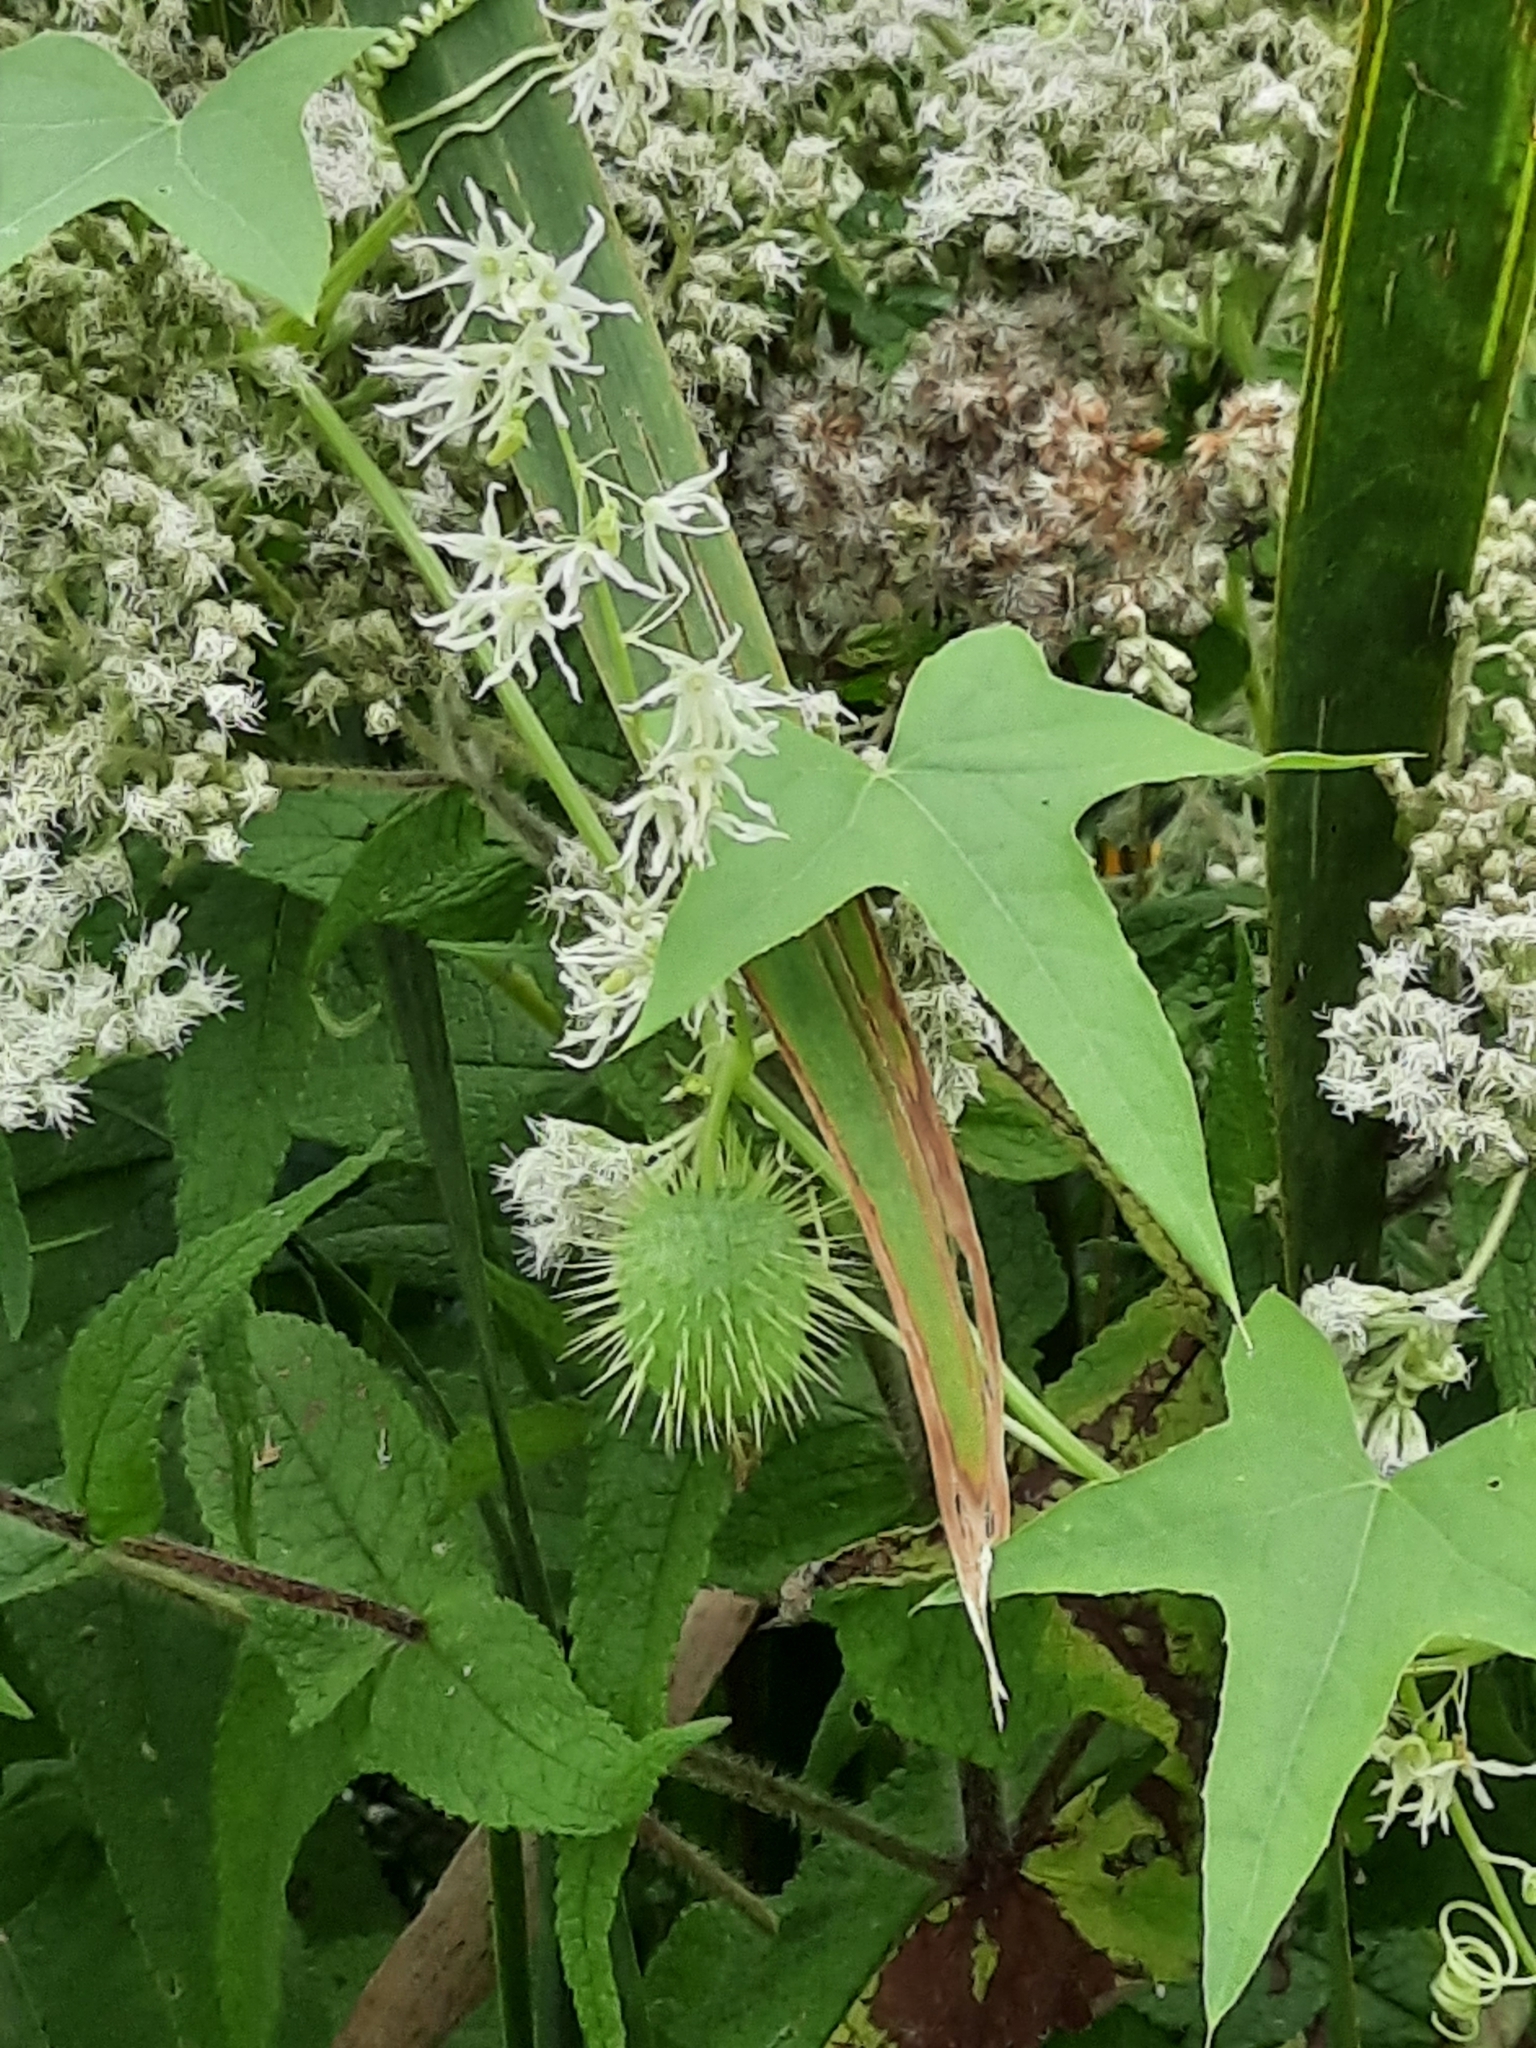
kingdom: Plantae
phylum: Tracheophyta
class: Magnoliopsida
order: Cucurbitales
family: Cucurbitaceae
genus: Echinocystis
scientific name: Echinocystis lobata
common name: Wild cucumber
